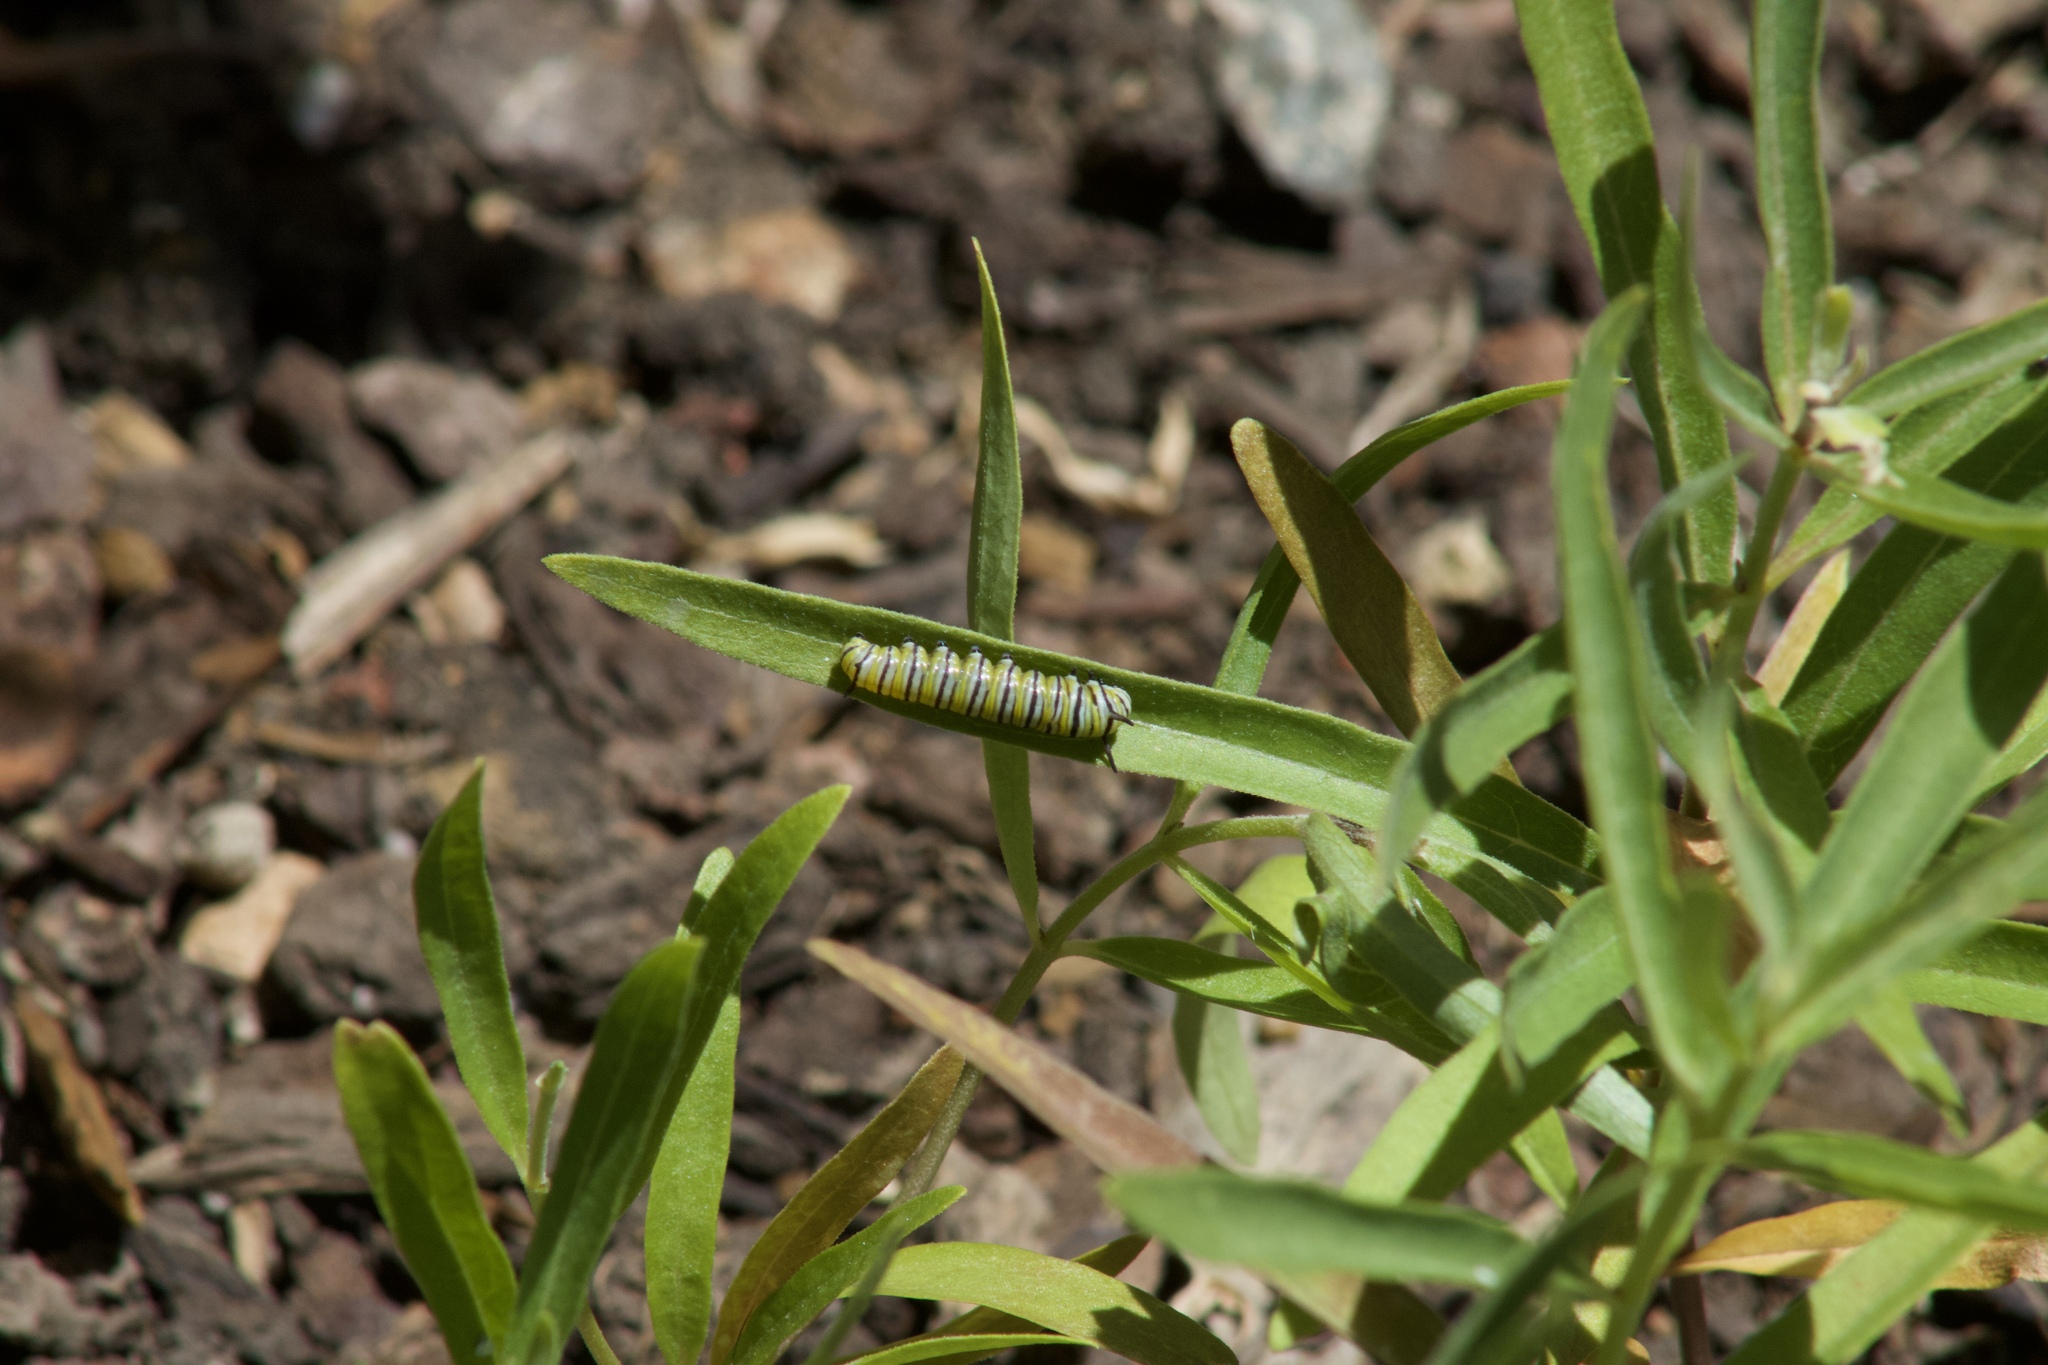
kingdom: Animalia
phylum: Arthropoda
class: Insecta
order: Lepidoptera
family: Nymphalidae
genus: Danaus
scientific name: Danaus plexippus
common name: Monarch
